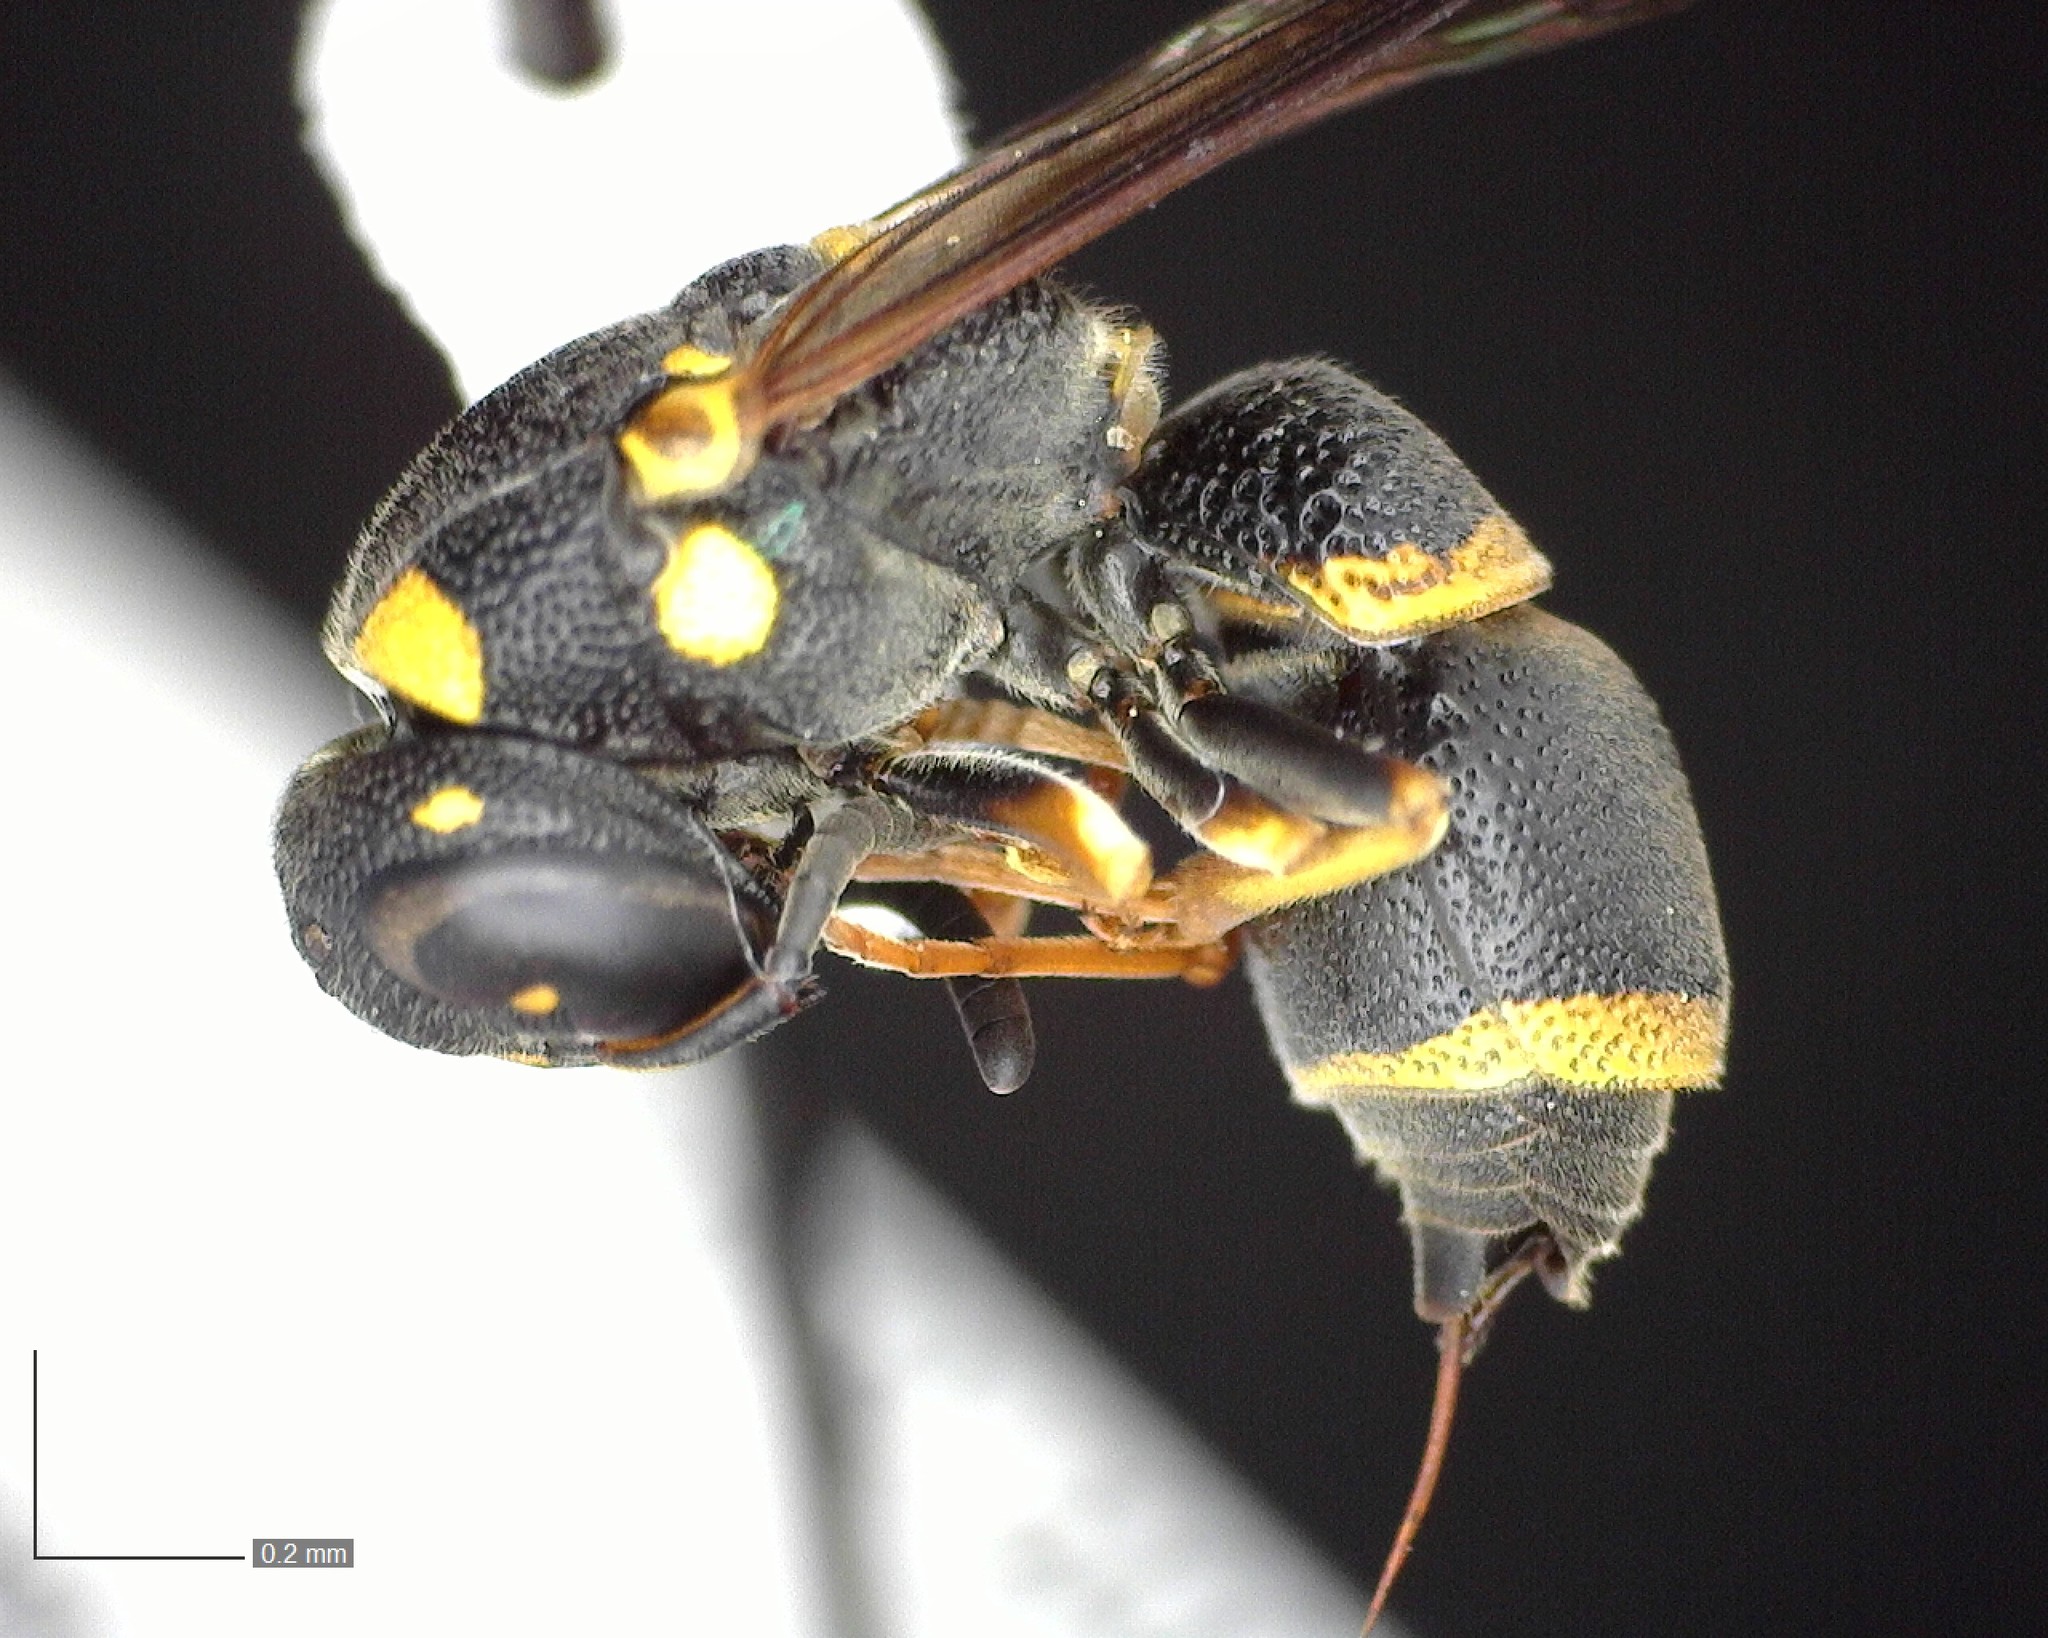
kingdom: Animalia
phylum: Arthropoda
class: Insecta
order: Hymenoptera
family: Eumenidae
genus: Parancistrocerus
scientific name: Parancistrocerus perennis
